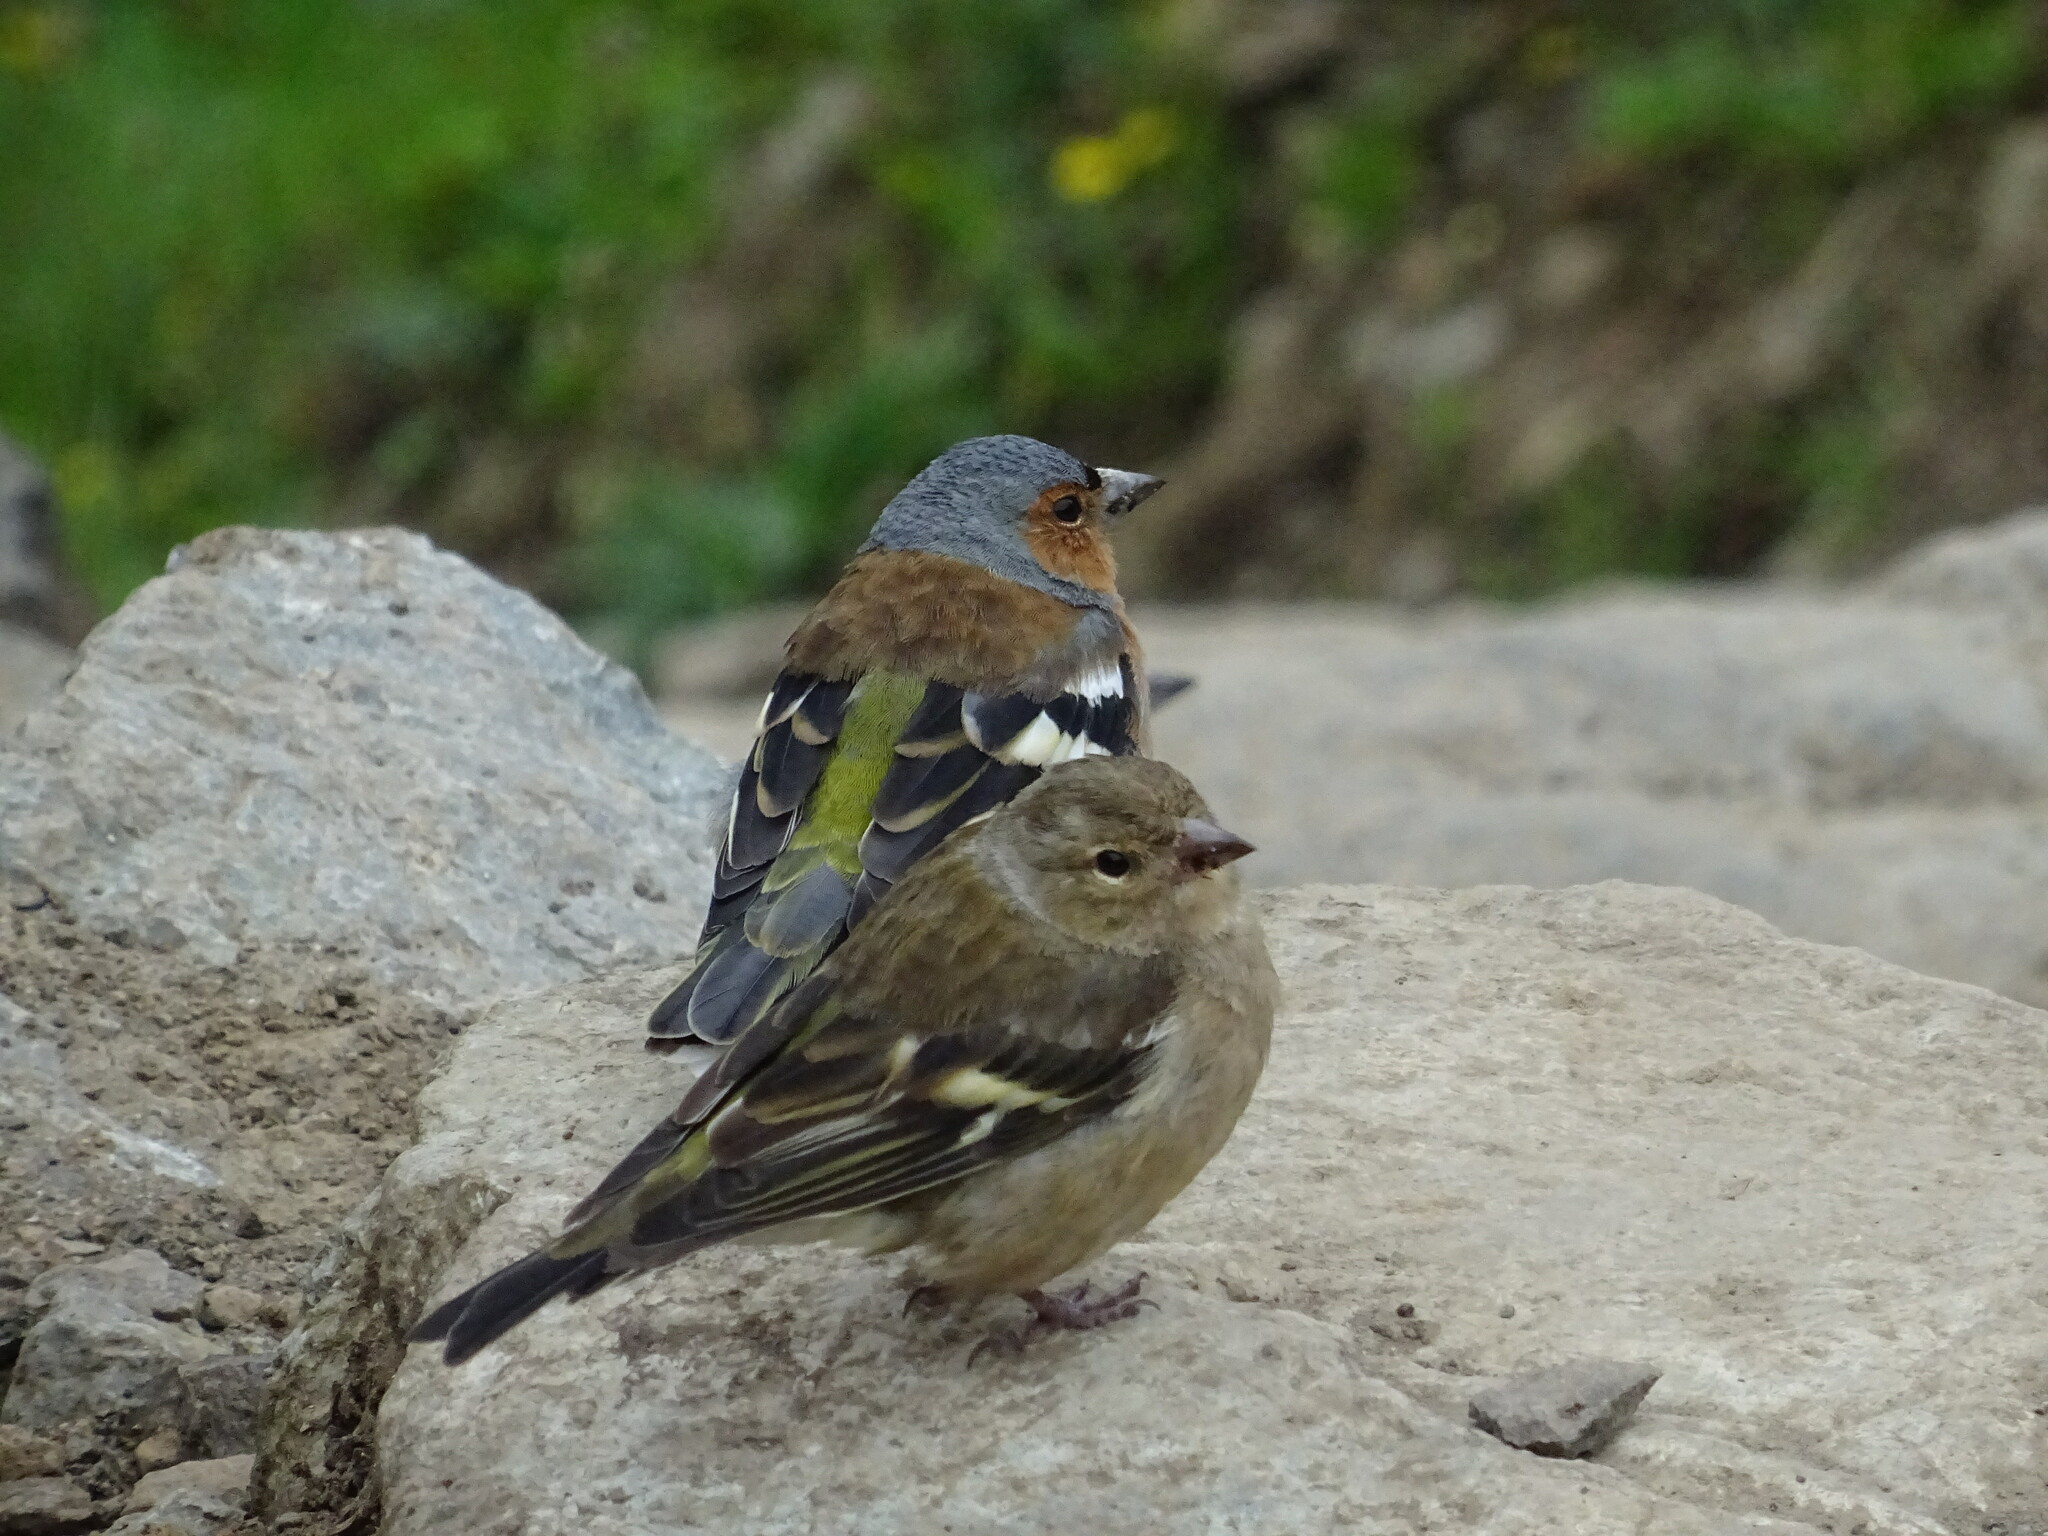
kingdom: Animalia
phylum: Chordata
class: Aves
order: Passeriformes
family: Fringillidae
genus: Fringilla
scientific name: Fringilla coelebs
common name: Common chaffinch
